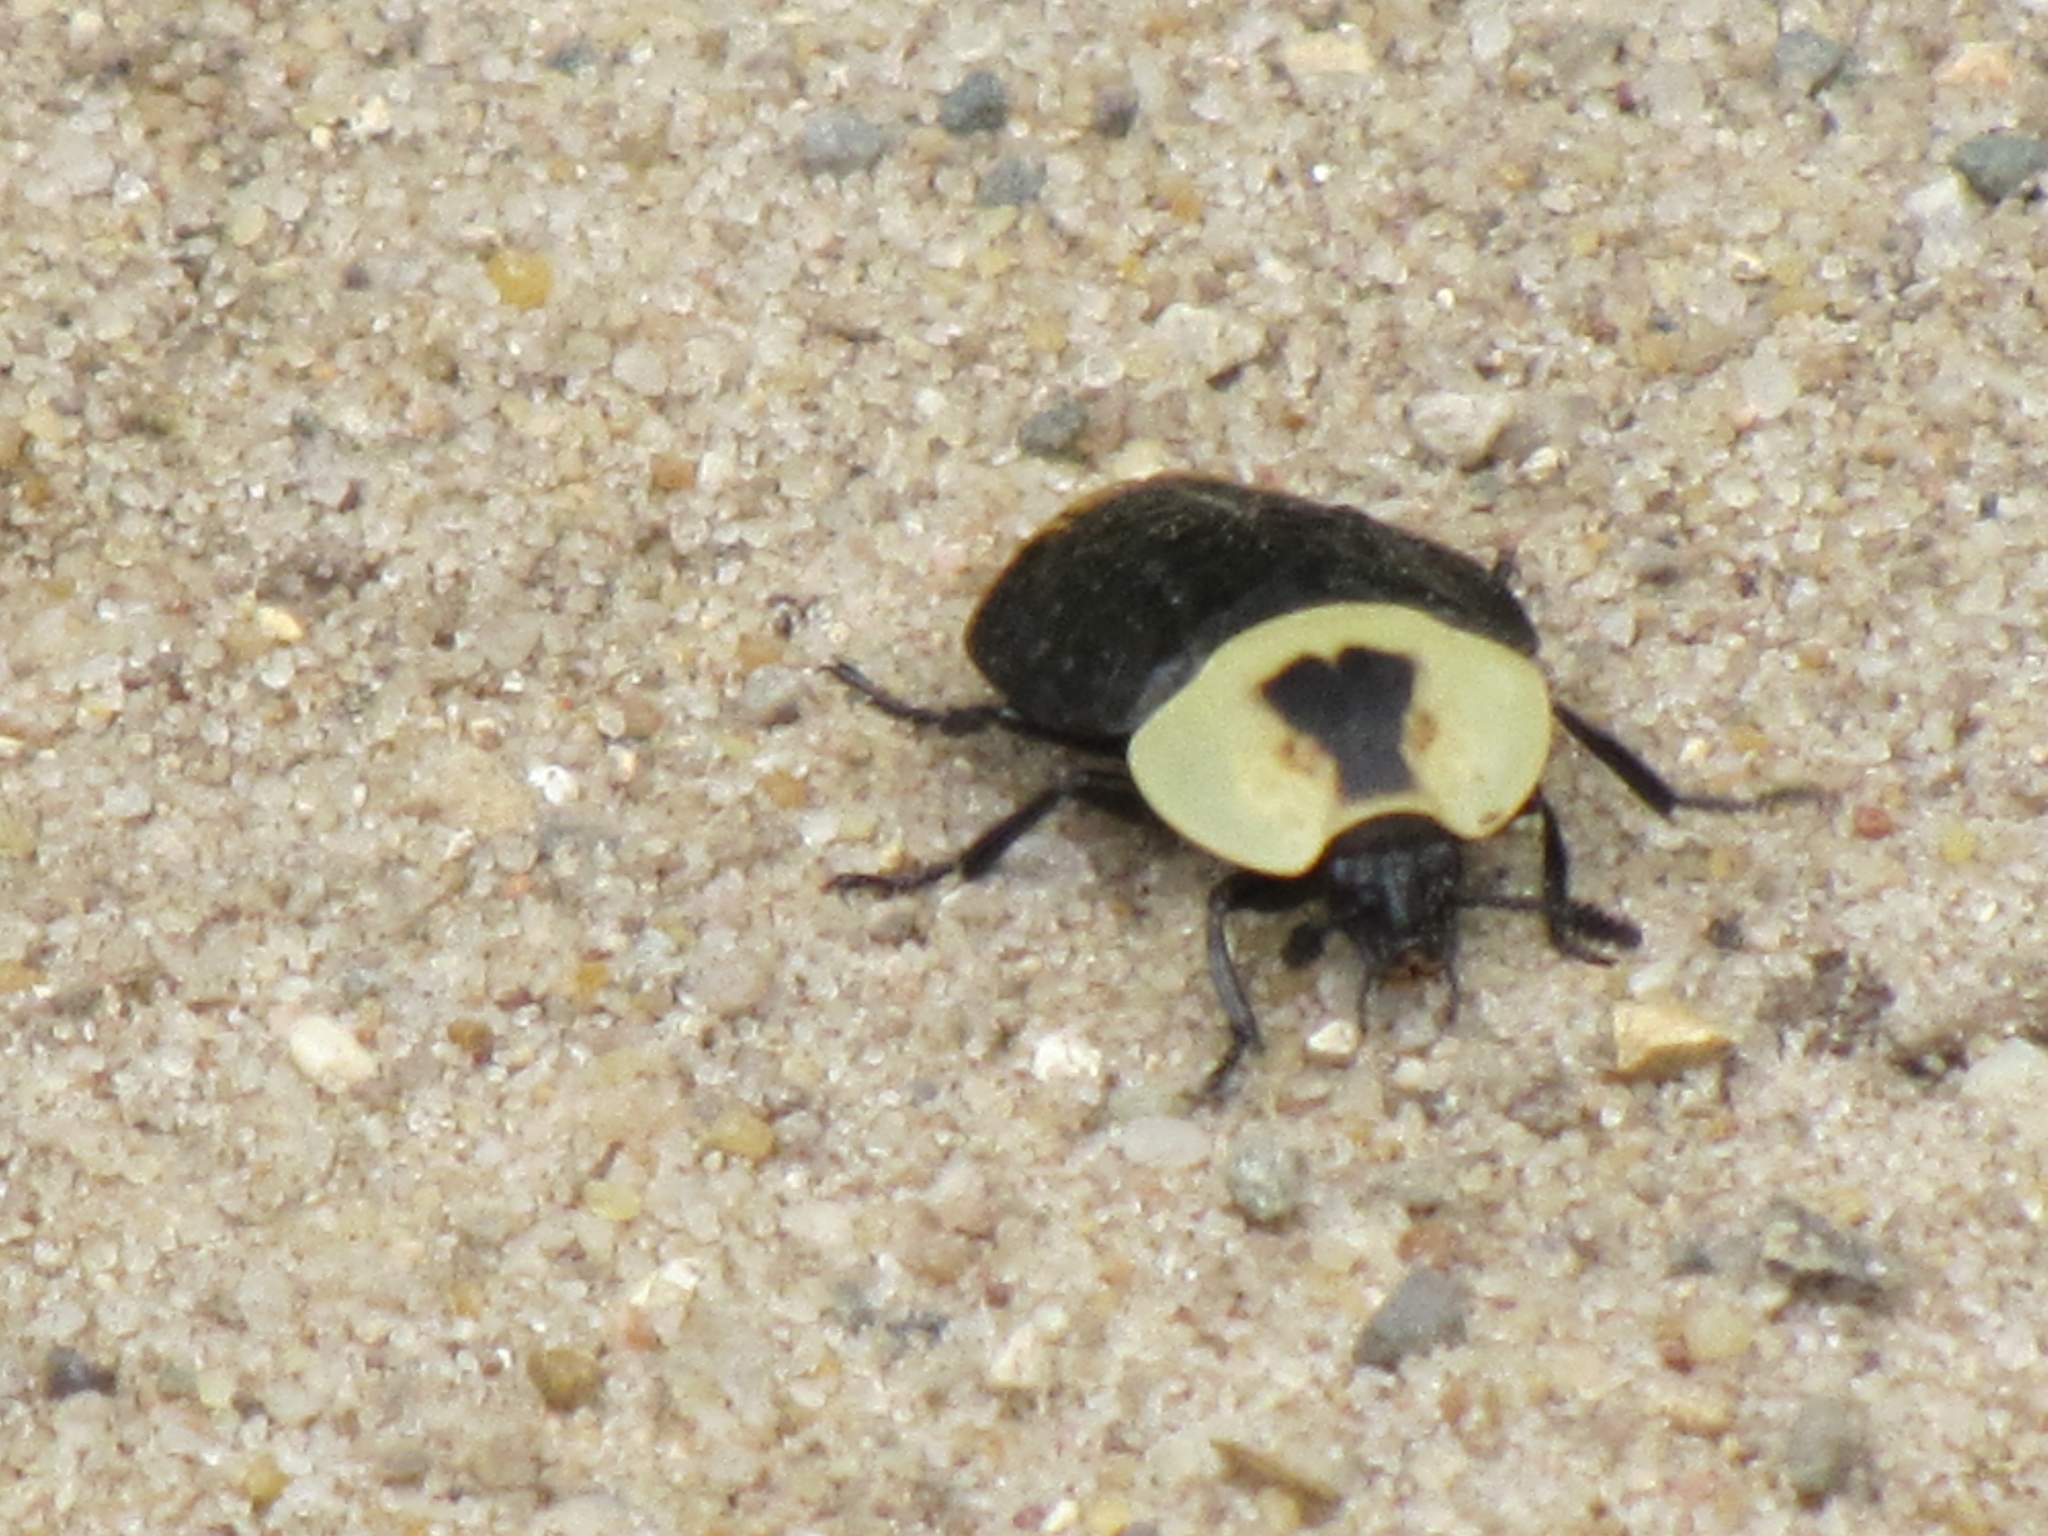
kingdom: Animalia
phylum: Arthropoda
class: Insecta
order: Coleoptera
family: Staphylinidae
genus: Necrophila
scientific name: Necrophila americana
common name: American carrion beetle
